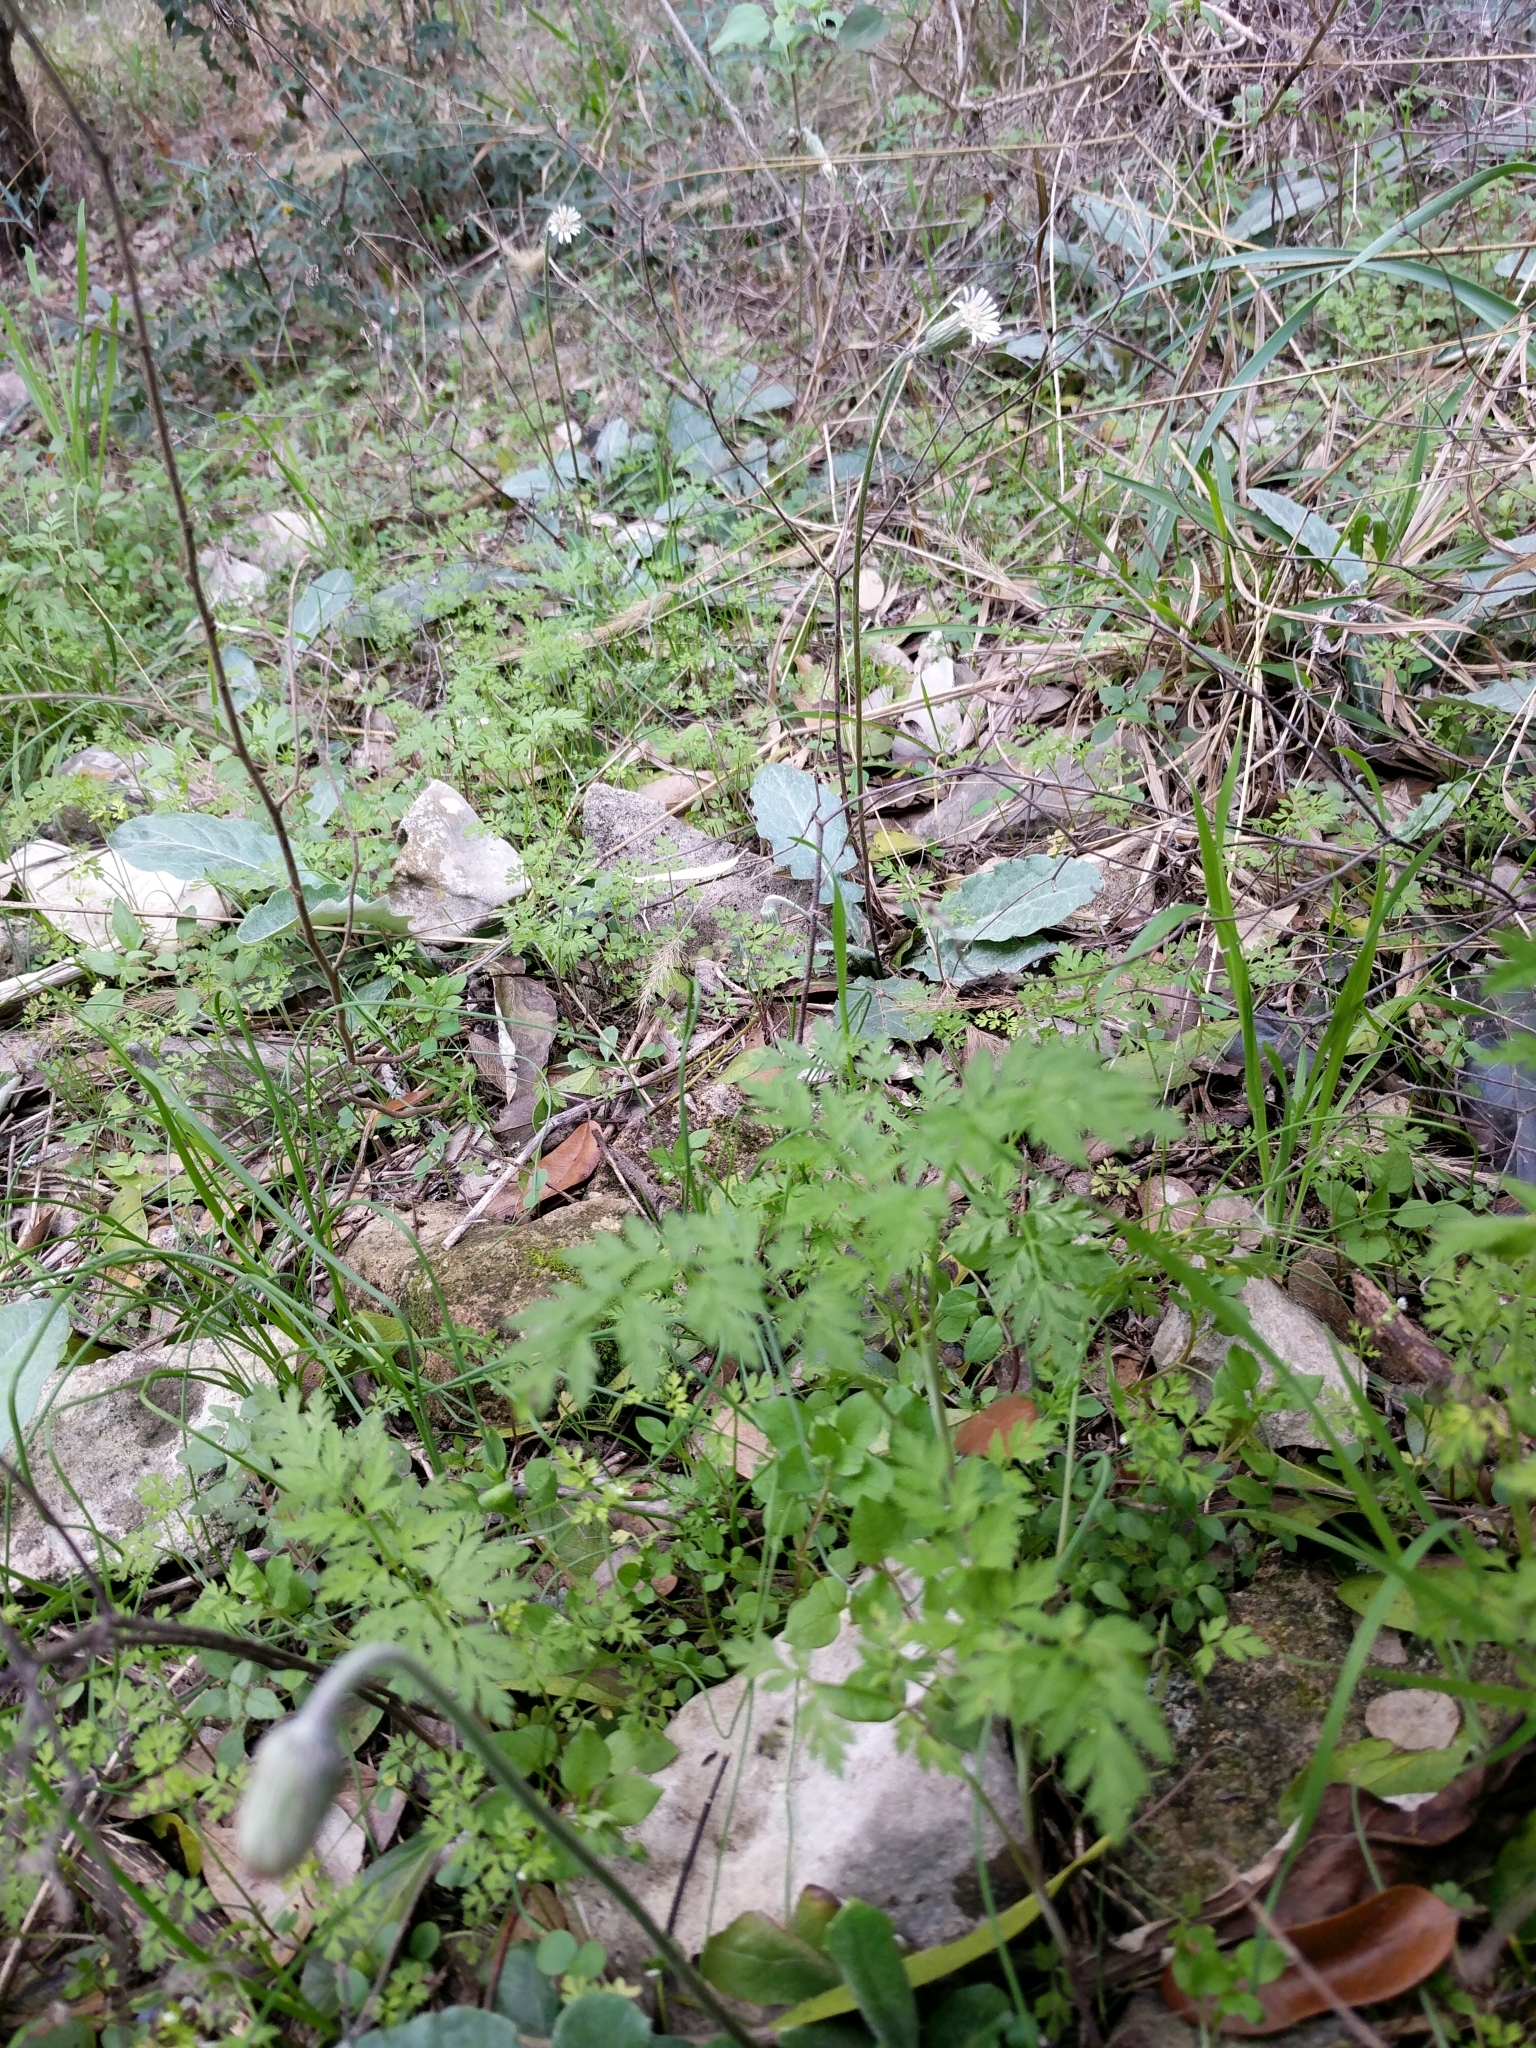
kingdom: Plantae
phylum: Tracheophyta
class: Magnoliopsida
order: Asterales
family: Asteraceae
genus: Chaptalia
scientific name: Chaptalia texana
